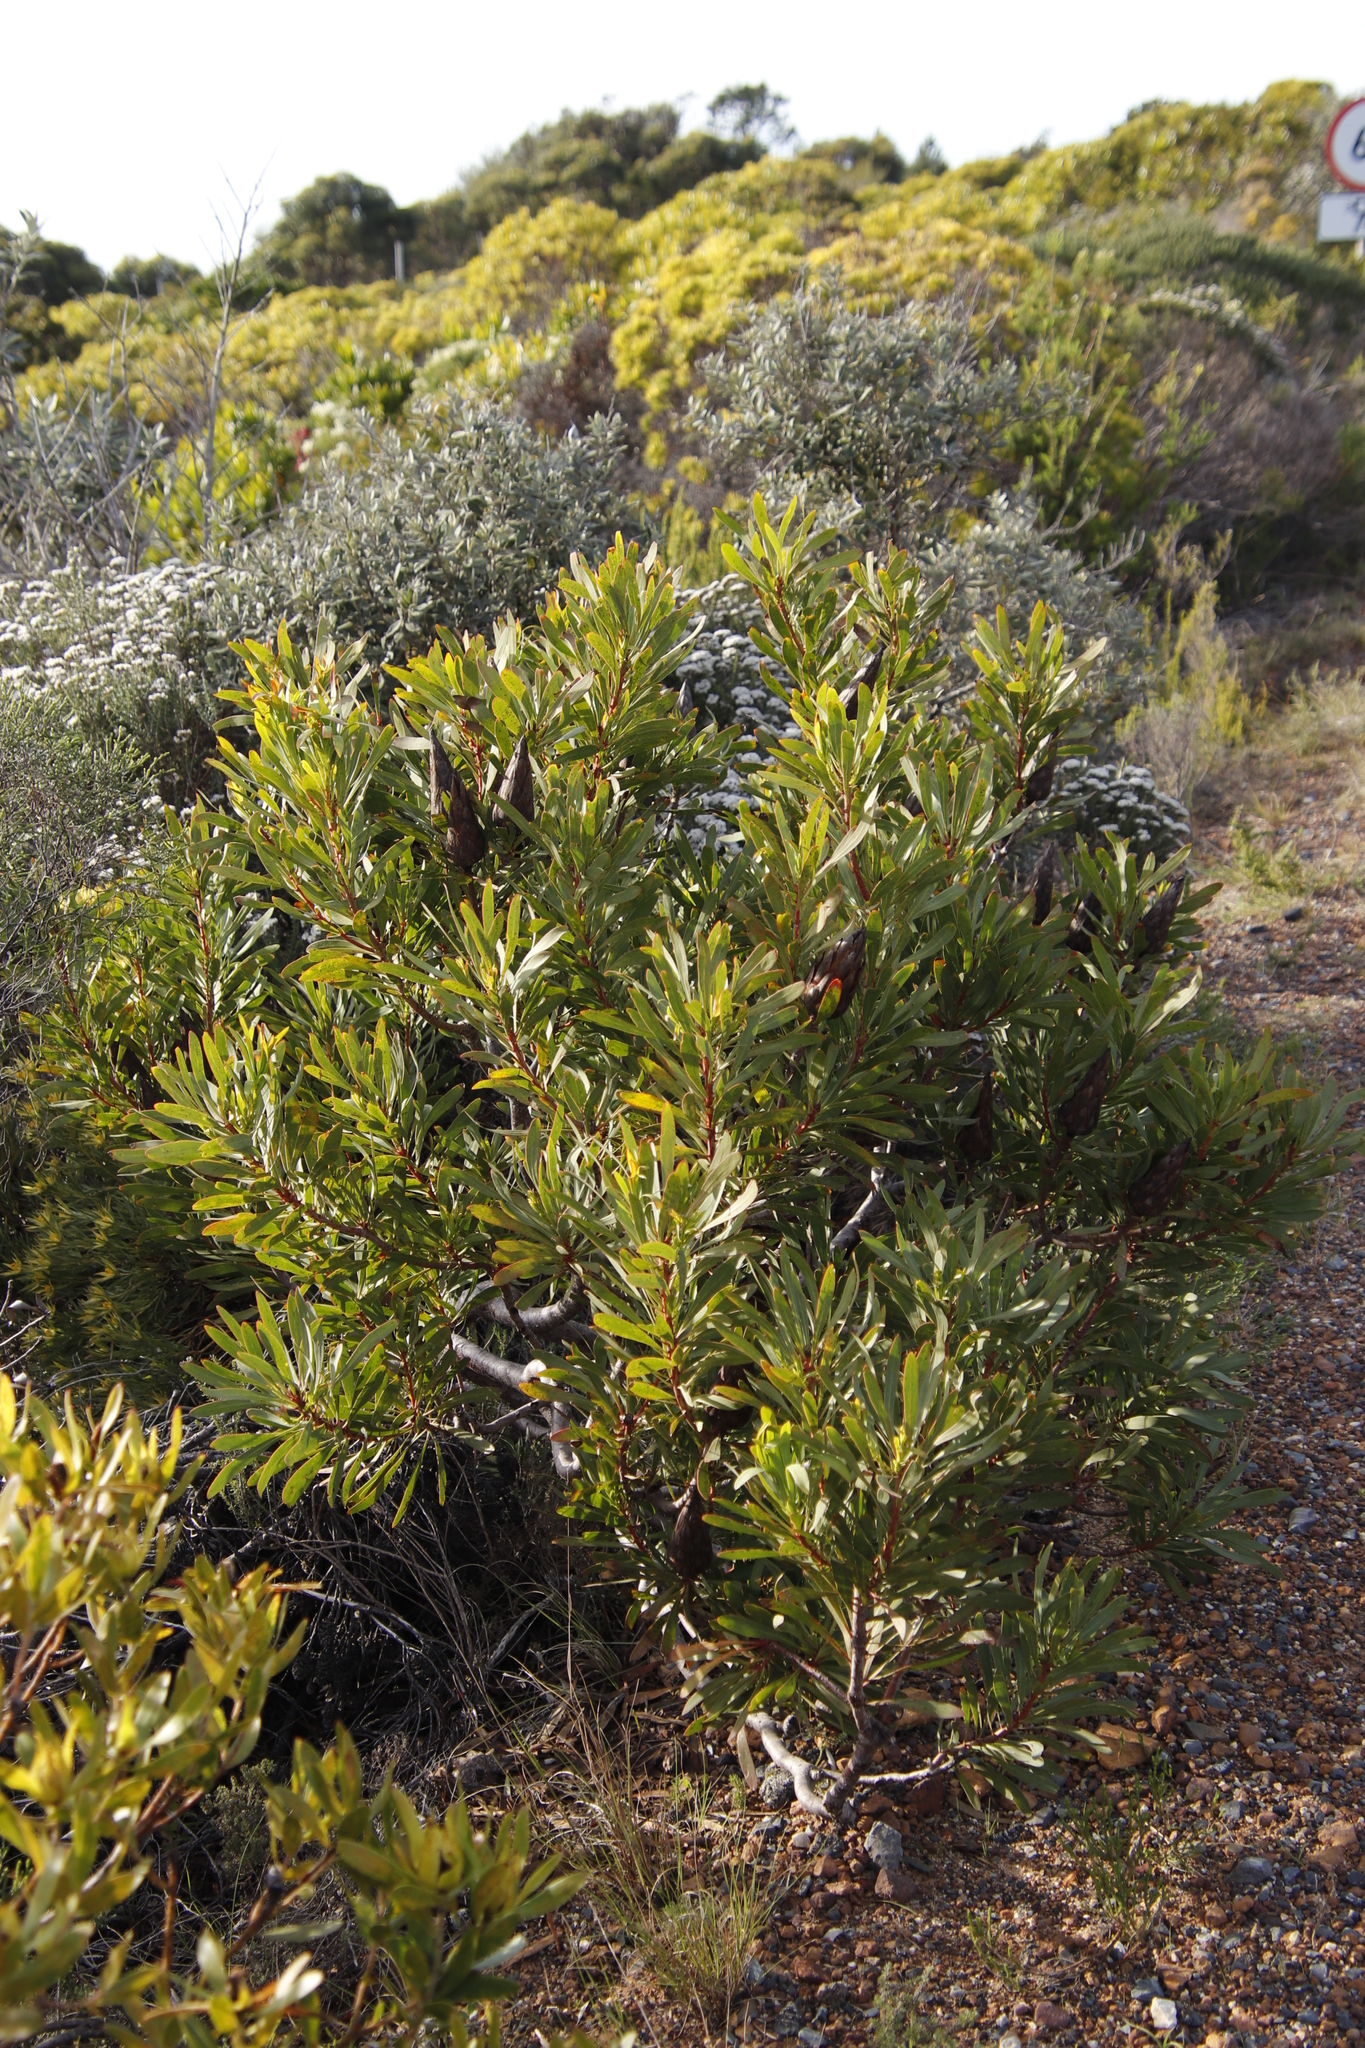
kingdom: Plantae
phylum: Tracheophyta
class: Magnoliopsida
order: Proteales
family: Proteaceae
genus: Protea
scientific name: Protea repens
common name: Sugarbush
